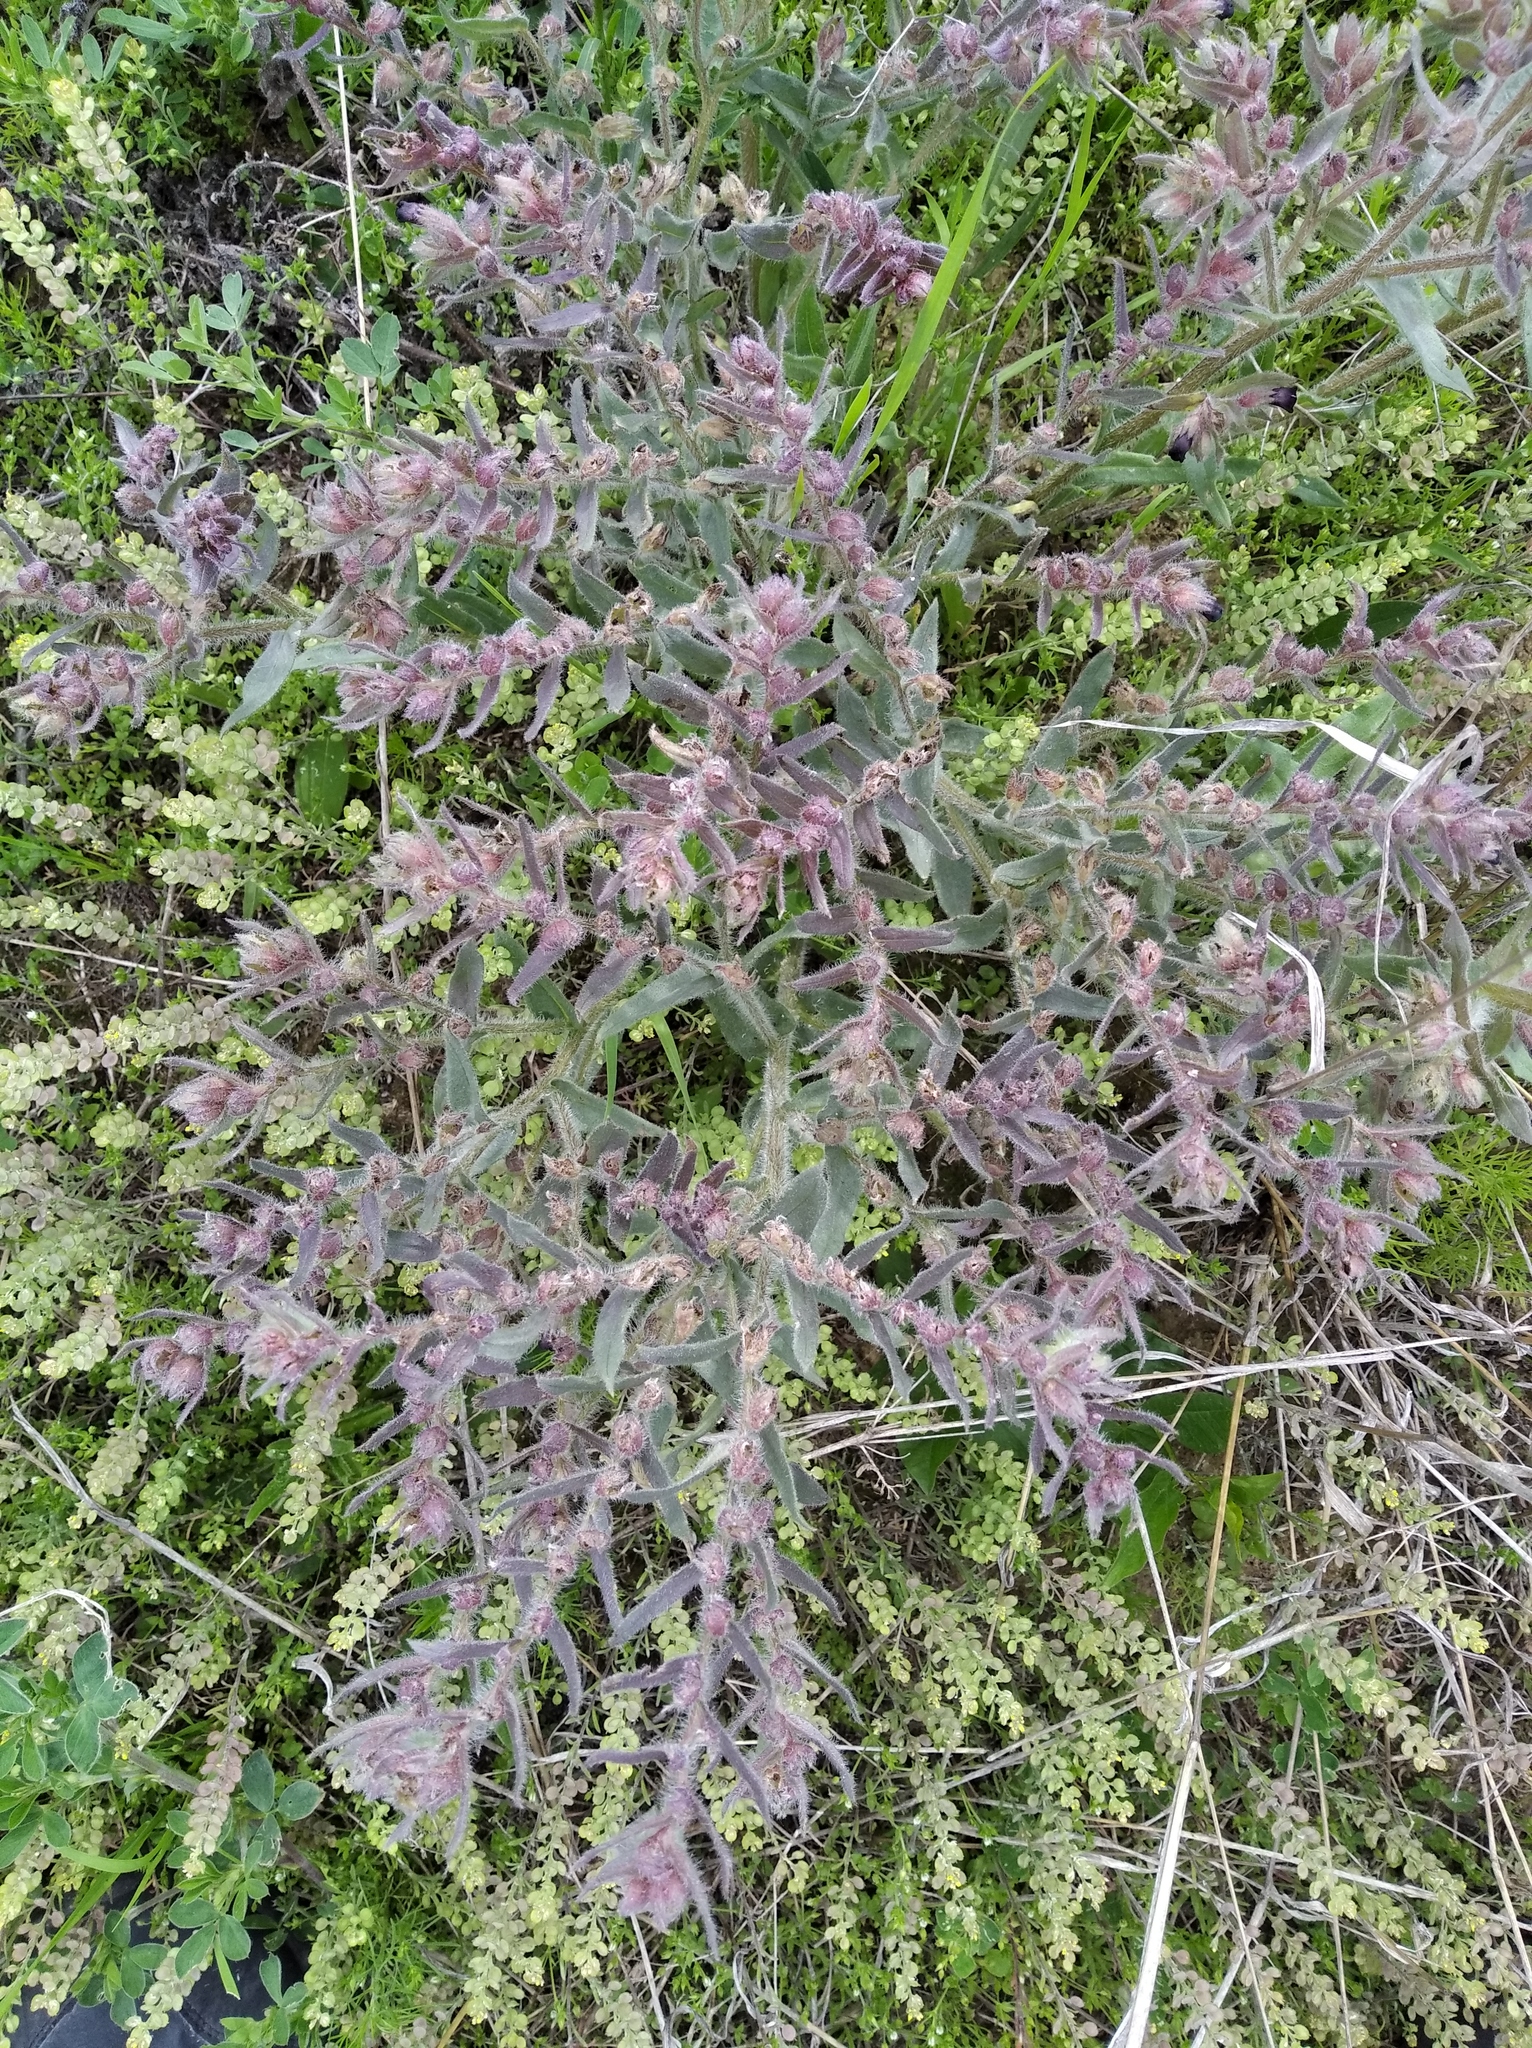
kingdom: Plantae
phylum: Tracheophyta
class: Magnoliopsida
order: Boraginales
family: Boraginaceae
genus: Nonea
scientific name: Nonea pulla
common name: Brown nonea
